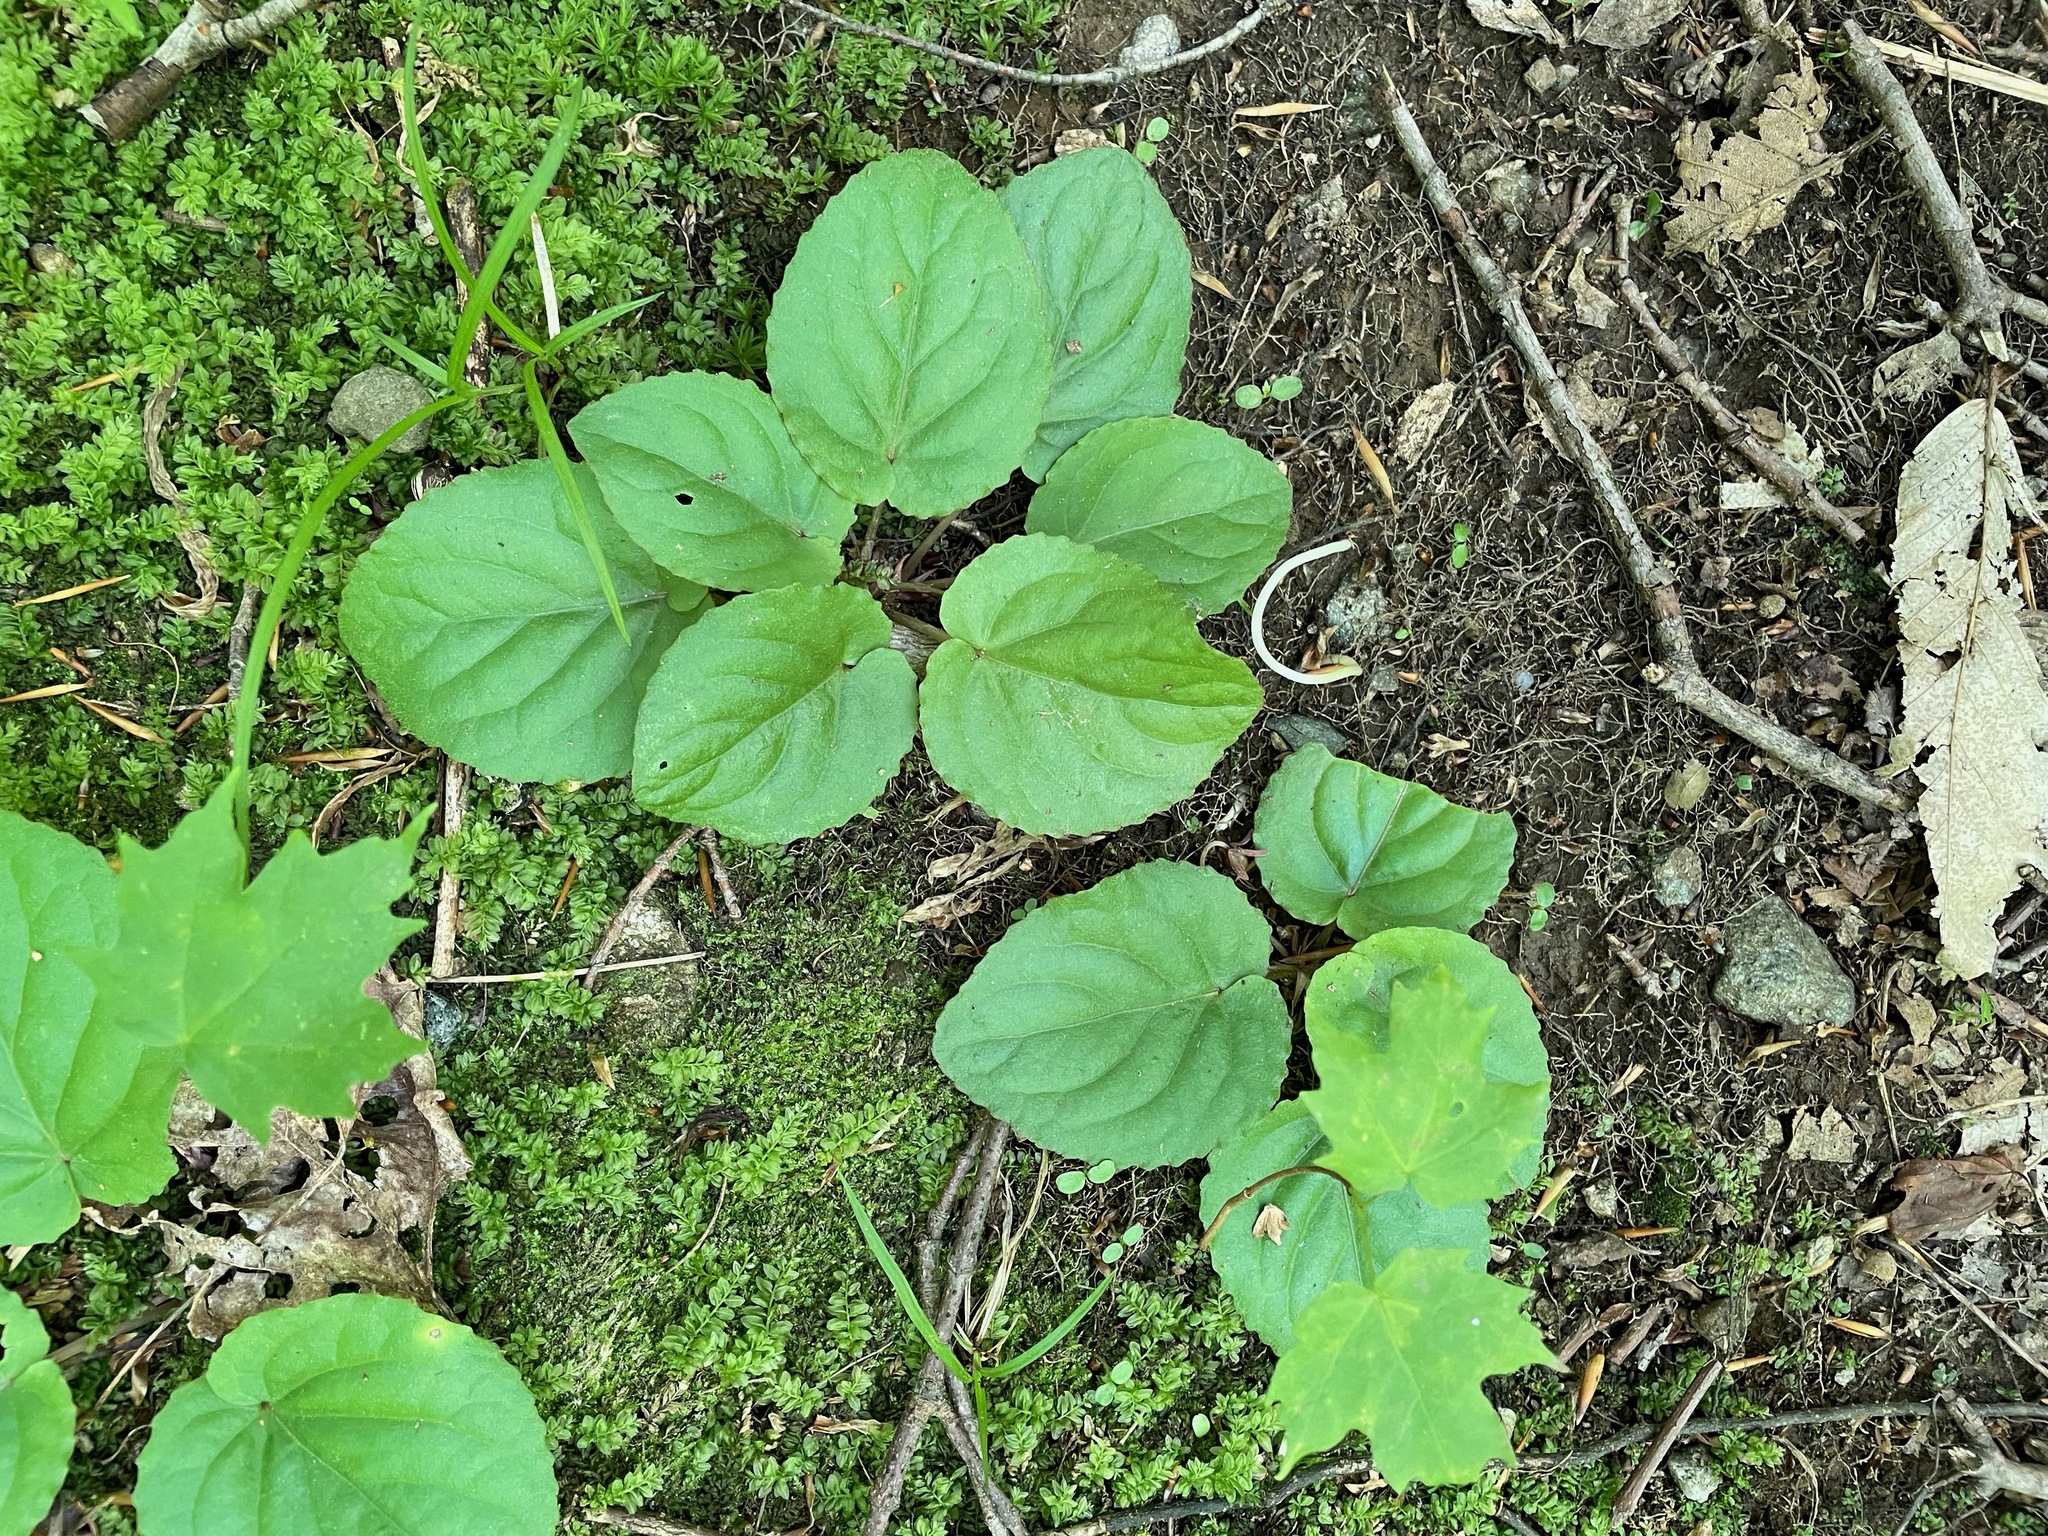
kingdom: Plantae
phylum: Tracheophyta
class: Magnoliopsida
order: Malpighiales
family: Violaceae
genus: Viola
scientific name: Viola rotundifolia
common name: Early yellow violet
